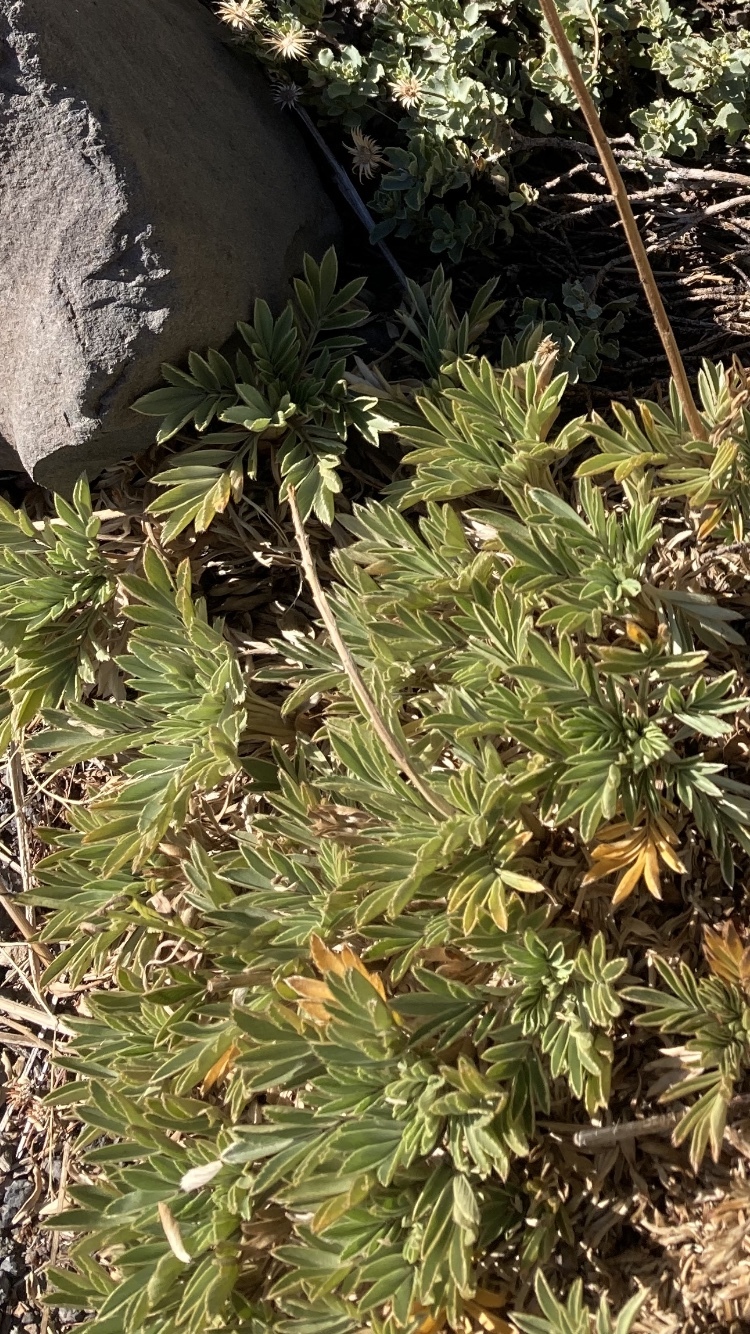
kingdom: Plantae
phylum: Tracheophyta
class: Magnoliopsida
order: Rosales
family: Rosaceae
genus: Acaena
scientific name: Acaena pinnatifida
